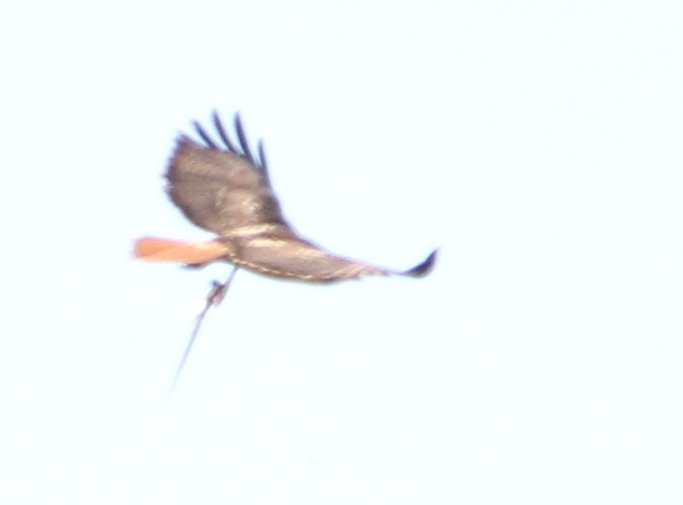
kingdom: Animalia
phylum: Chordata
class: Aves
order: Accipitriformes
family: Accipitridae
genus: Buteo
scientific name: Buteo jamaicensis
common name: Red-tailed hawk
